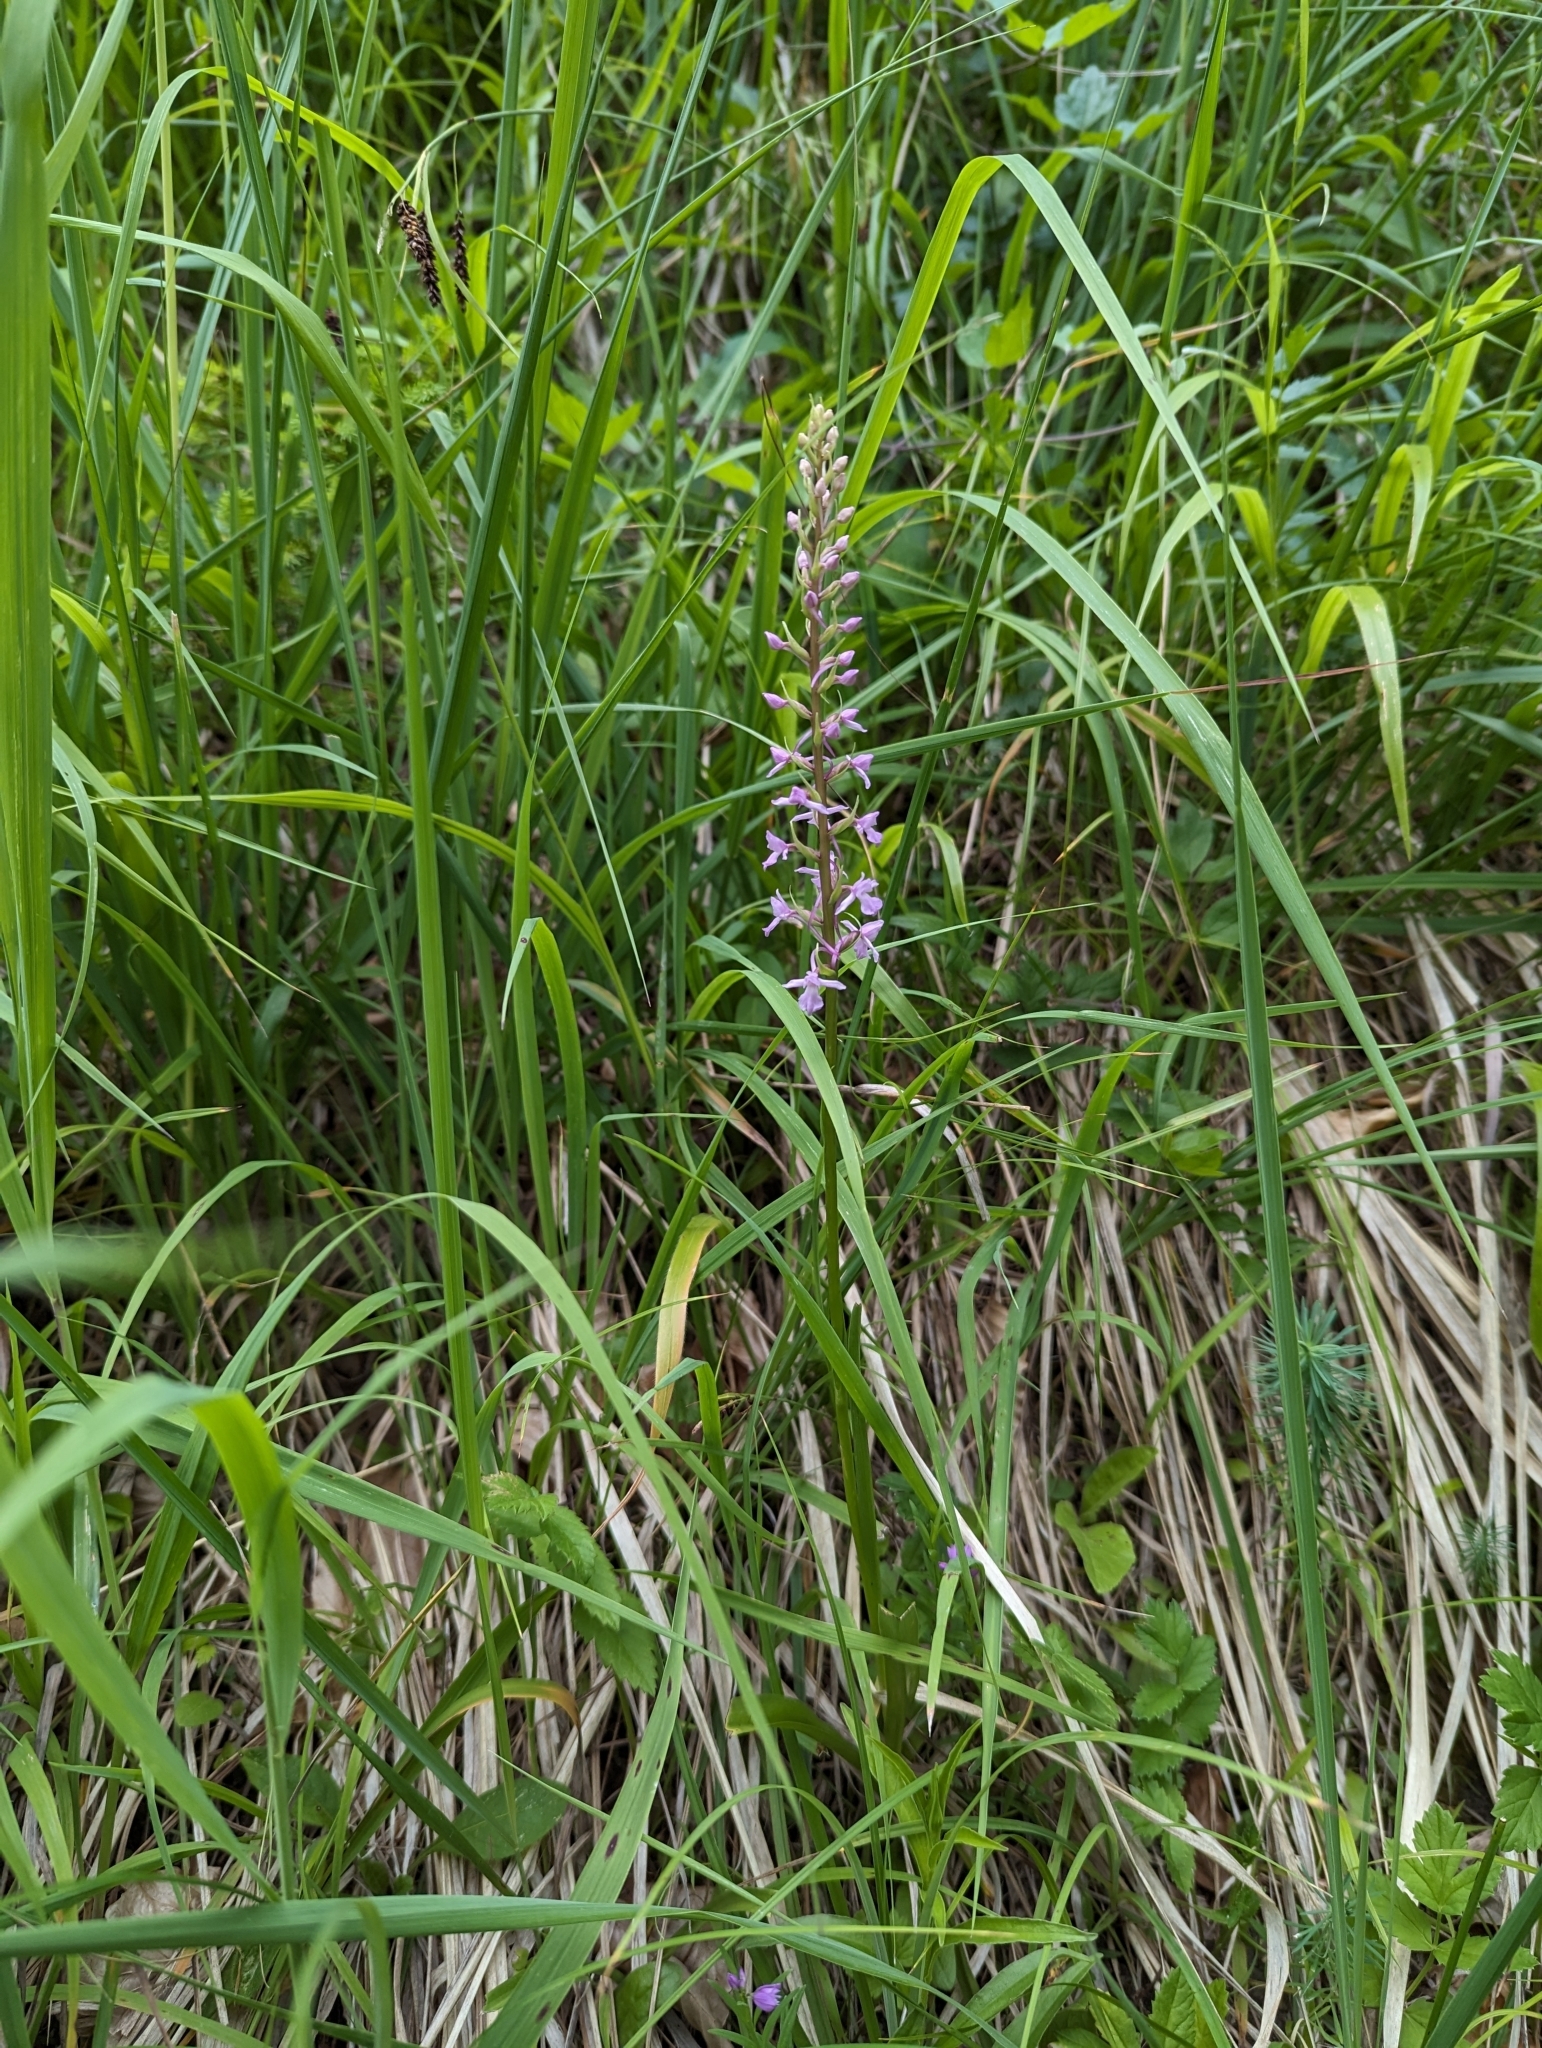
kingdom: Plantae
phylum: Tracheophyta
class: Liliopsida
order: Asparagales
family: Orchidaceae
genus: Gymnadenia
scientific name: Gymnadenia conopsea
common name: Fragrant orchid
